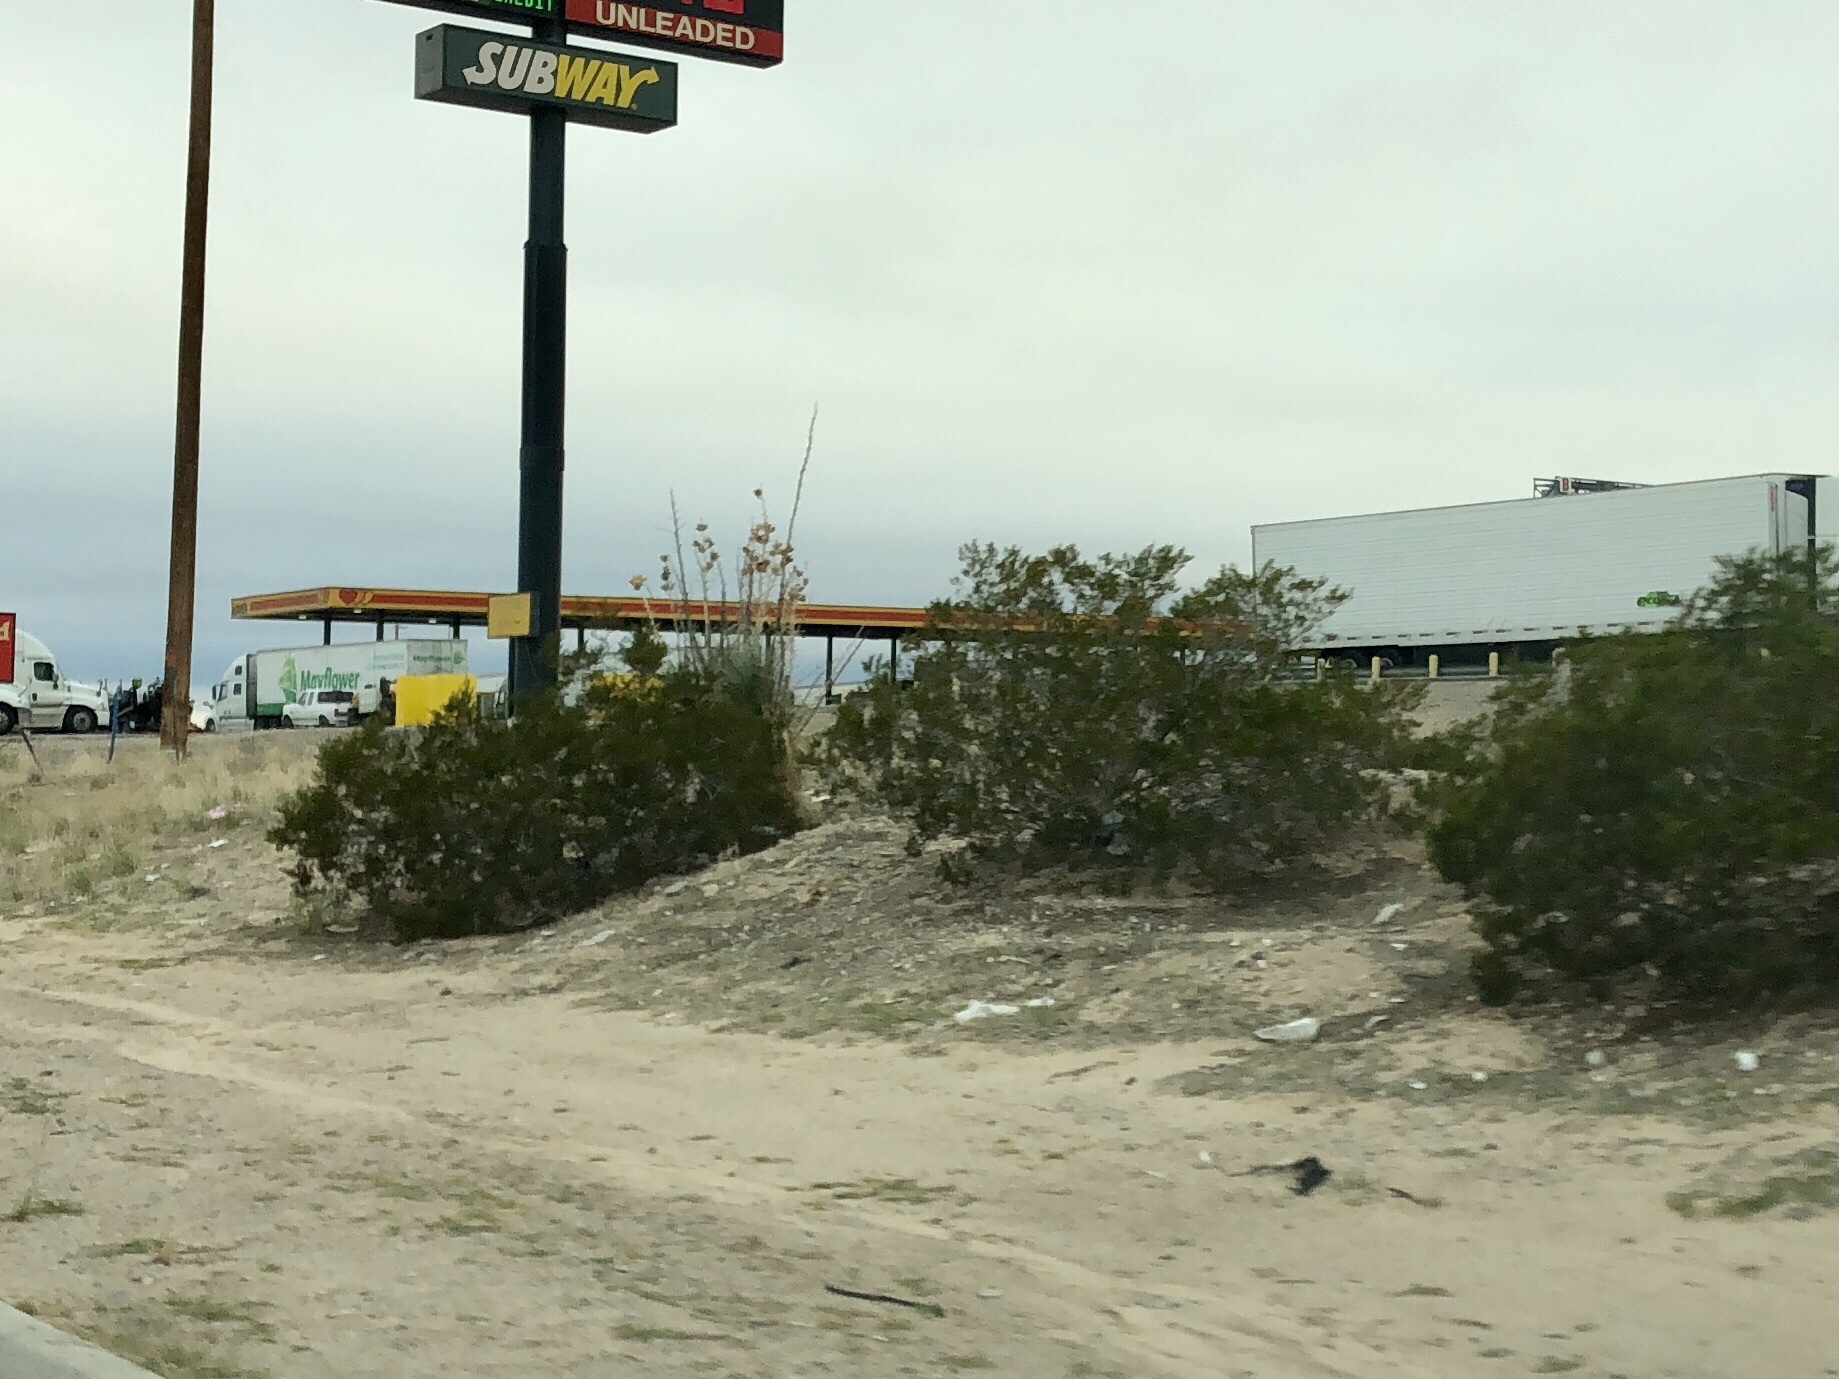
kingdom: Plantae
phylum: Tracheophyta
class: Magnoliopsida
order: Zygophyllales
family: Zygophyllaceae
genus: Larrea
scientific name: Larrea tridentata
